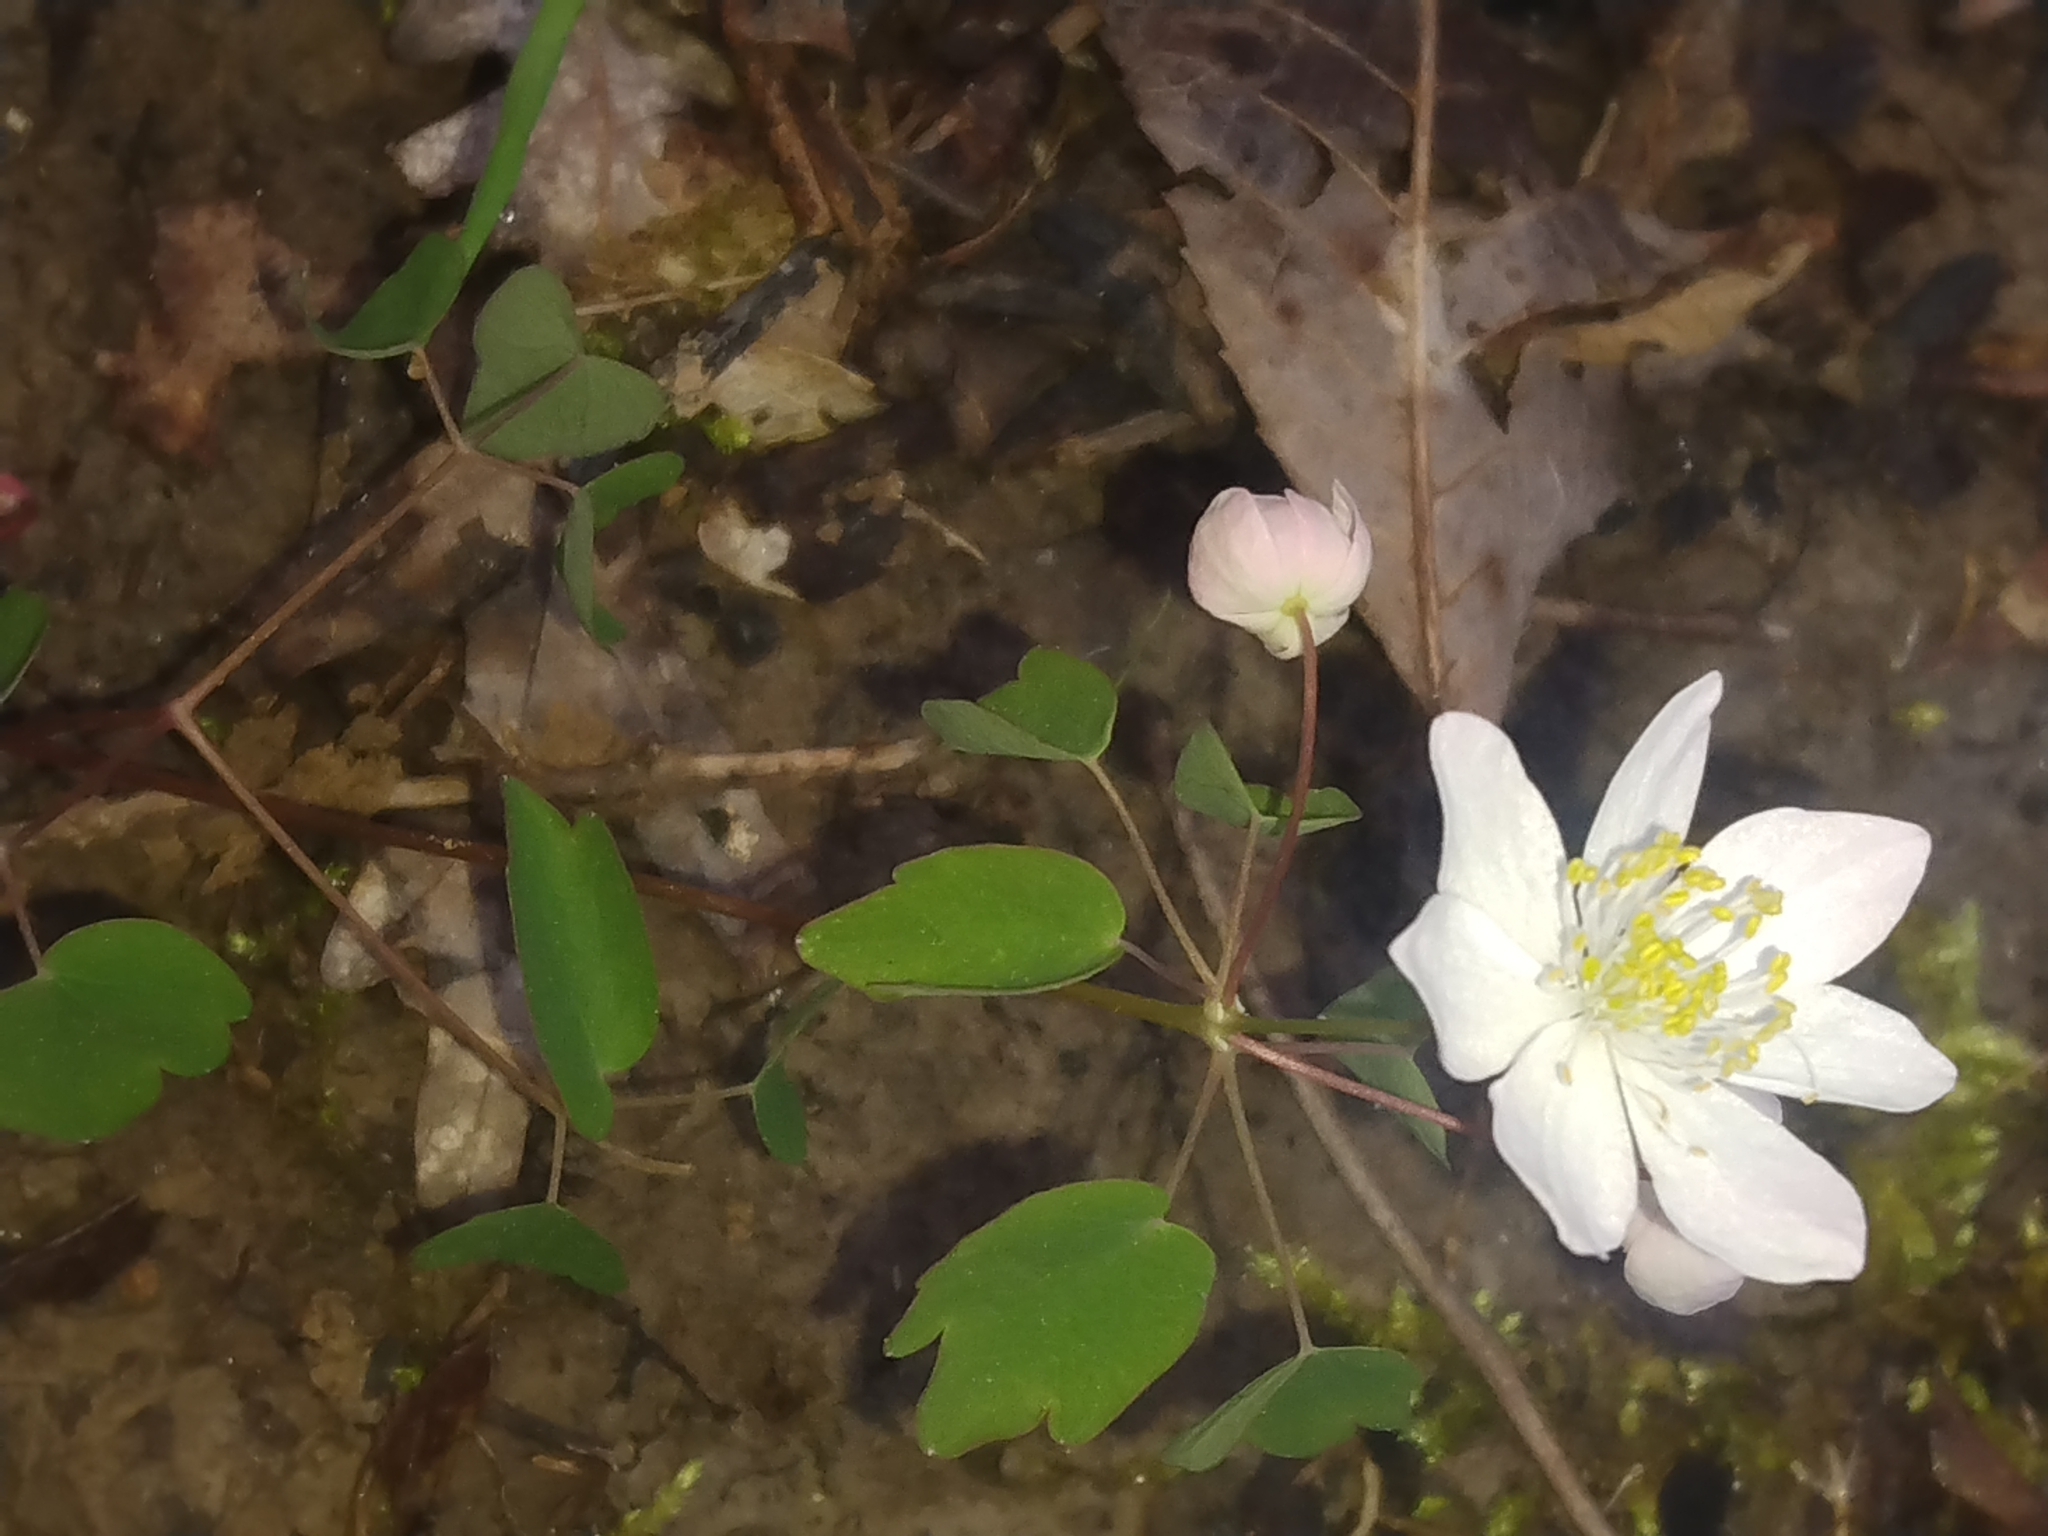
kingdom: Plantae
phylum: Tracheophyta
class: Magnoliopsida
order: Ranunculales
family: Ranunculaceae
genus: Thalictrum
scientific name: Thalictrum thalictroides
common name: Rue-anemone
